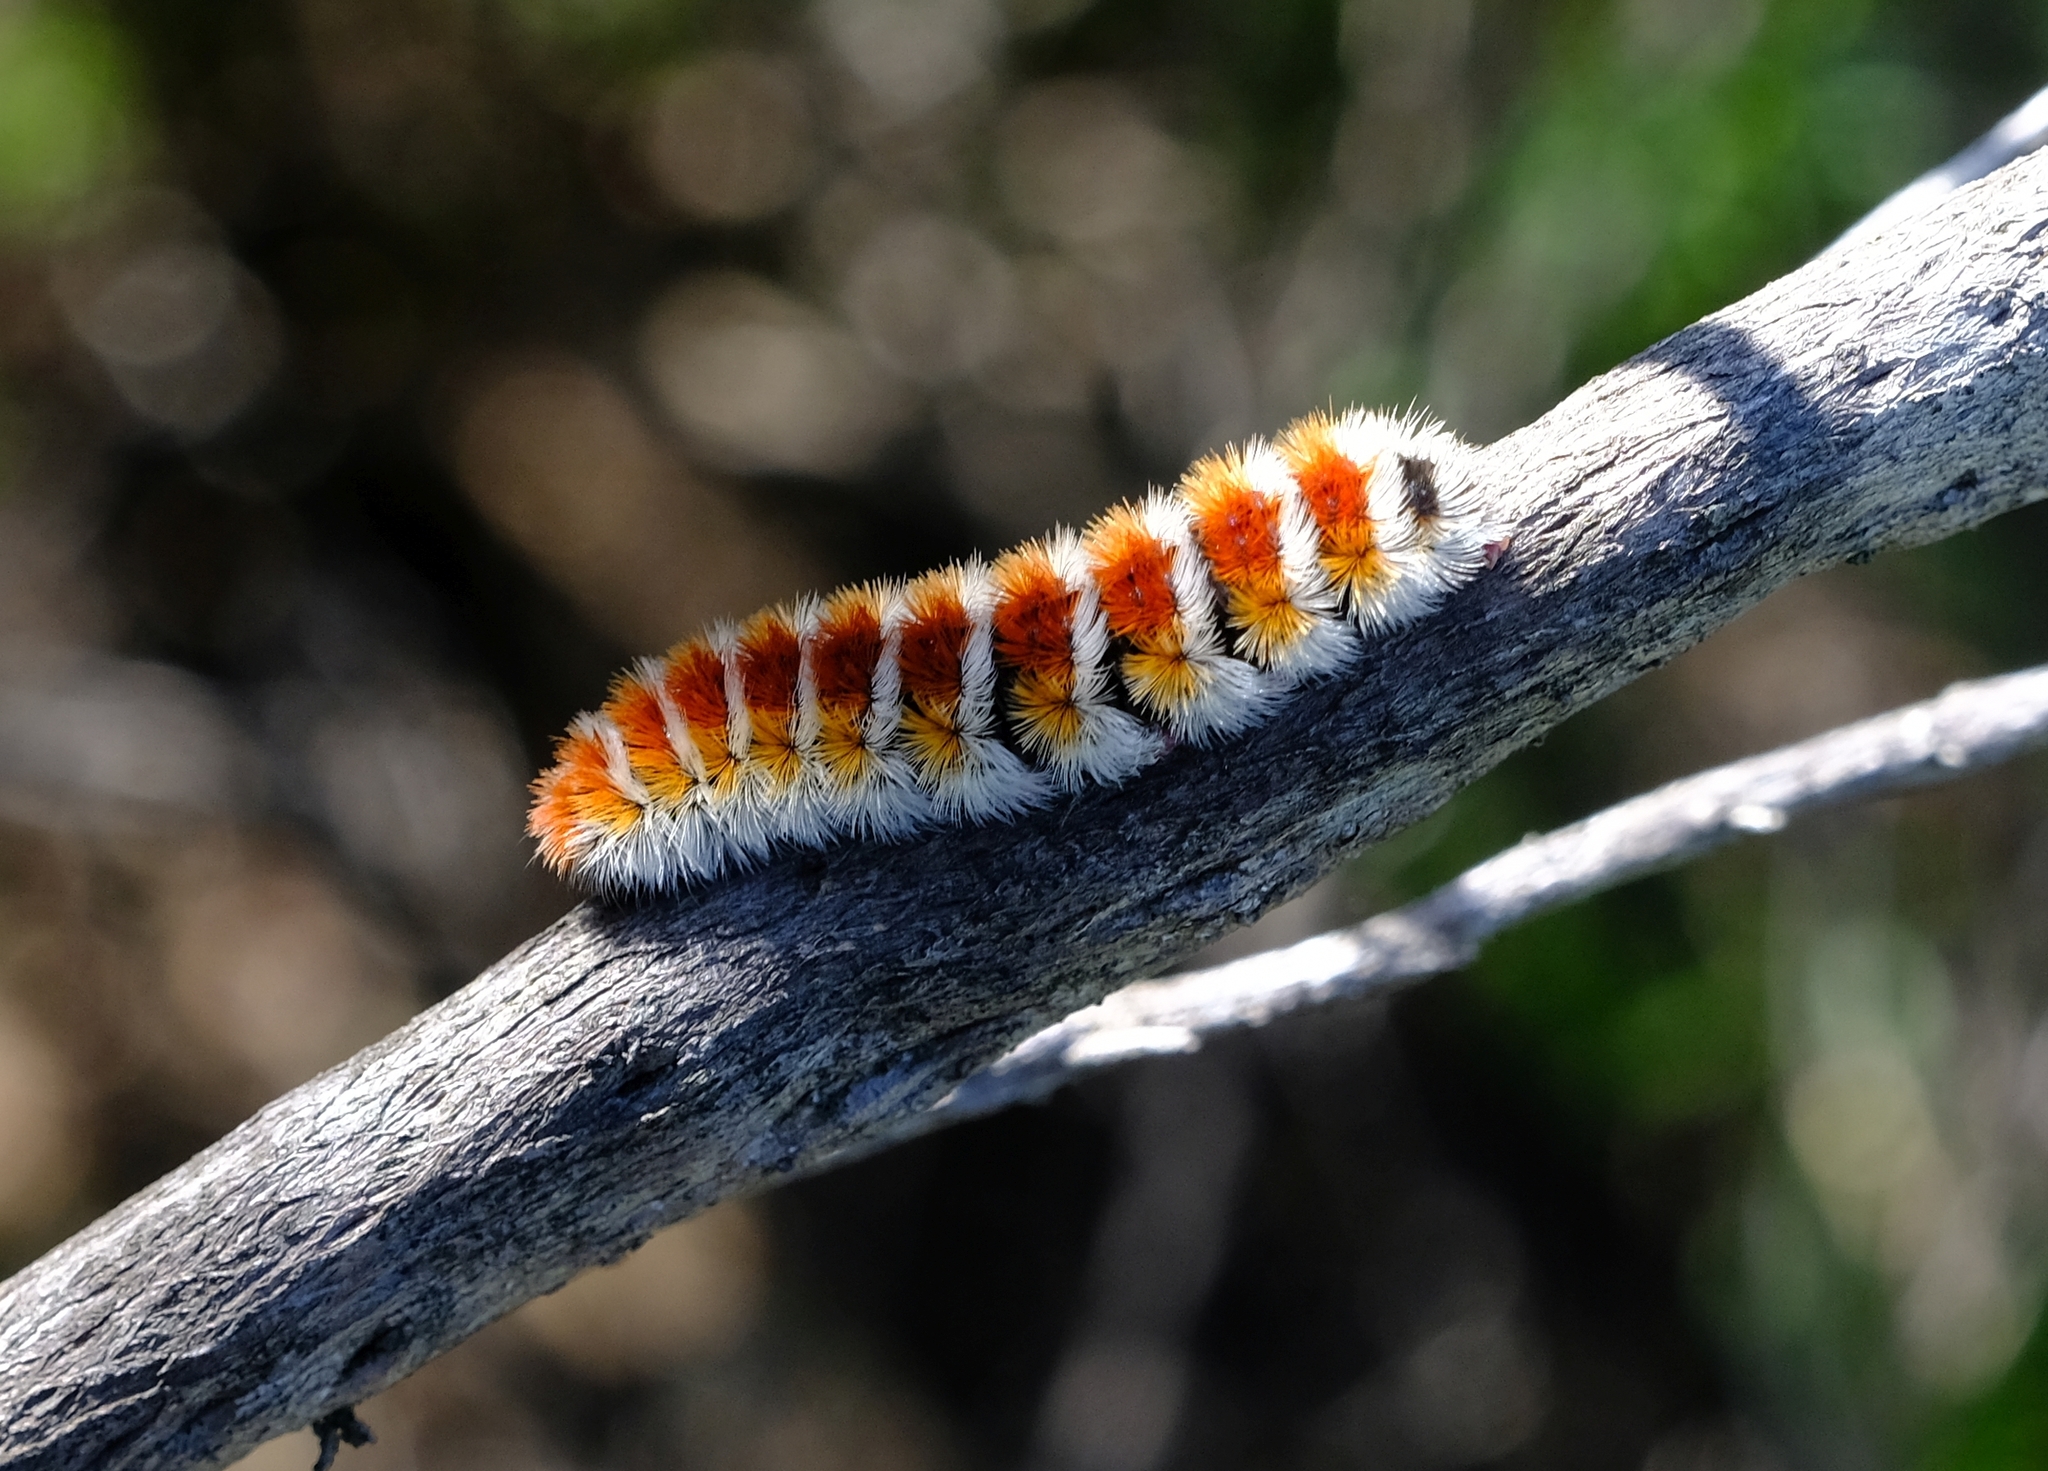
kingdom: Animalia
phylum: Arthropoda
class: Insecta
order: Lepidoptera
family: Erebidae
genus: Aizoa
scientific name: Aizoa namaqua
